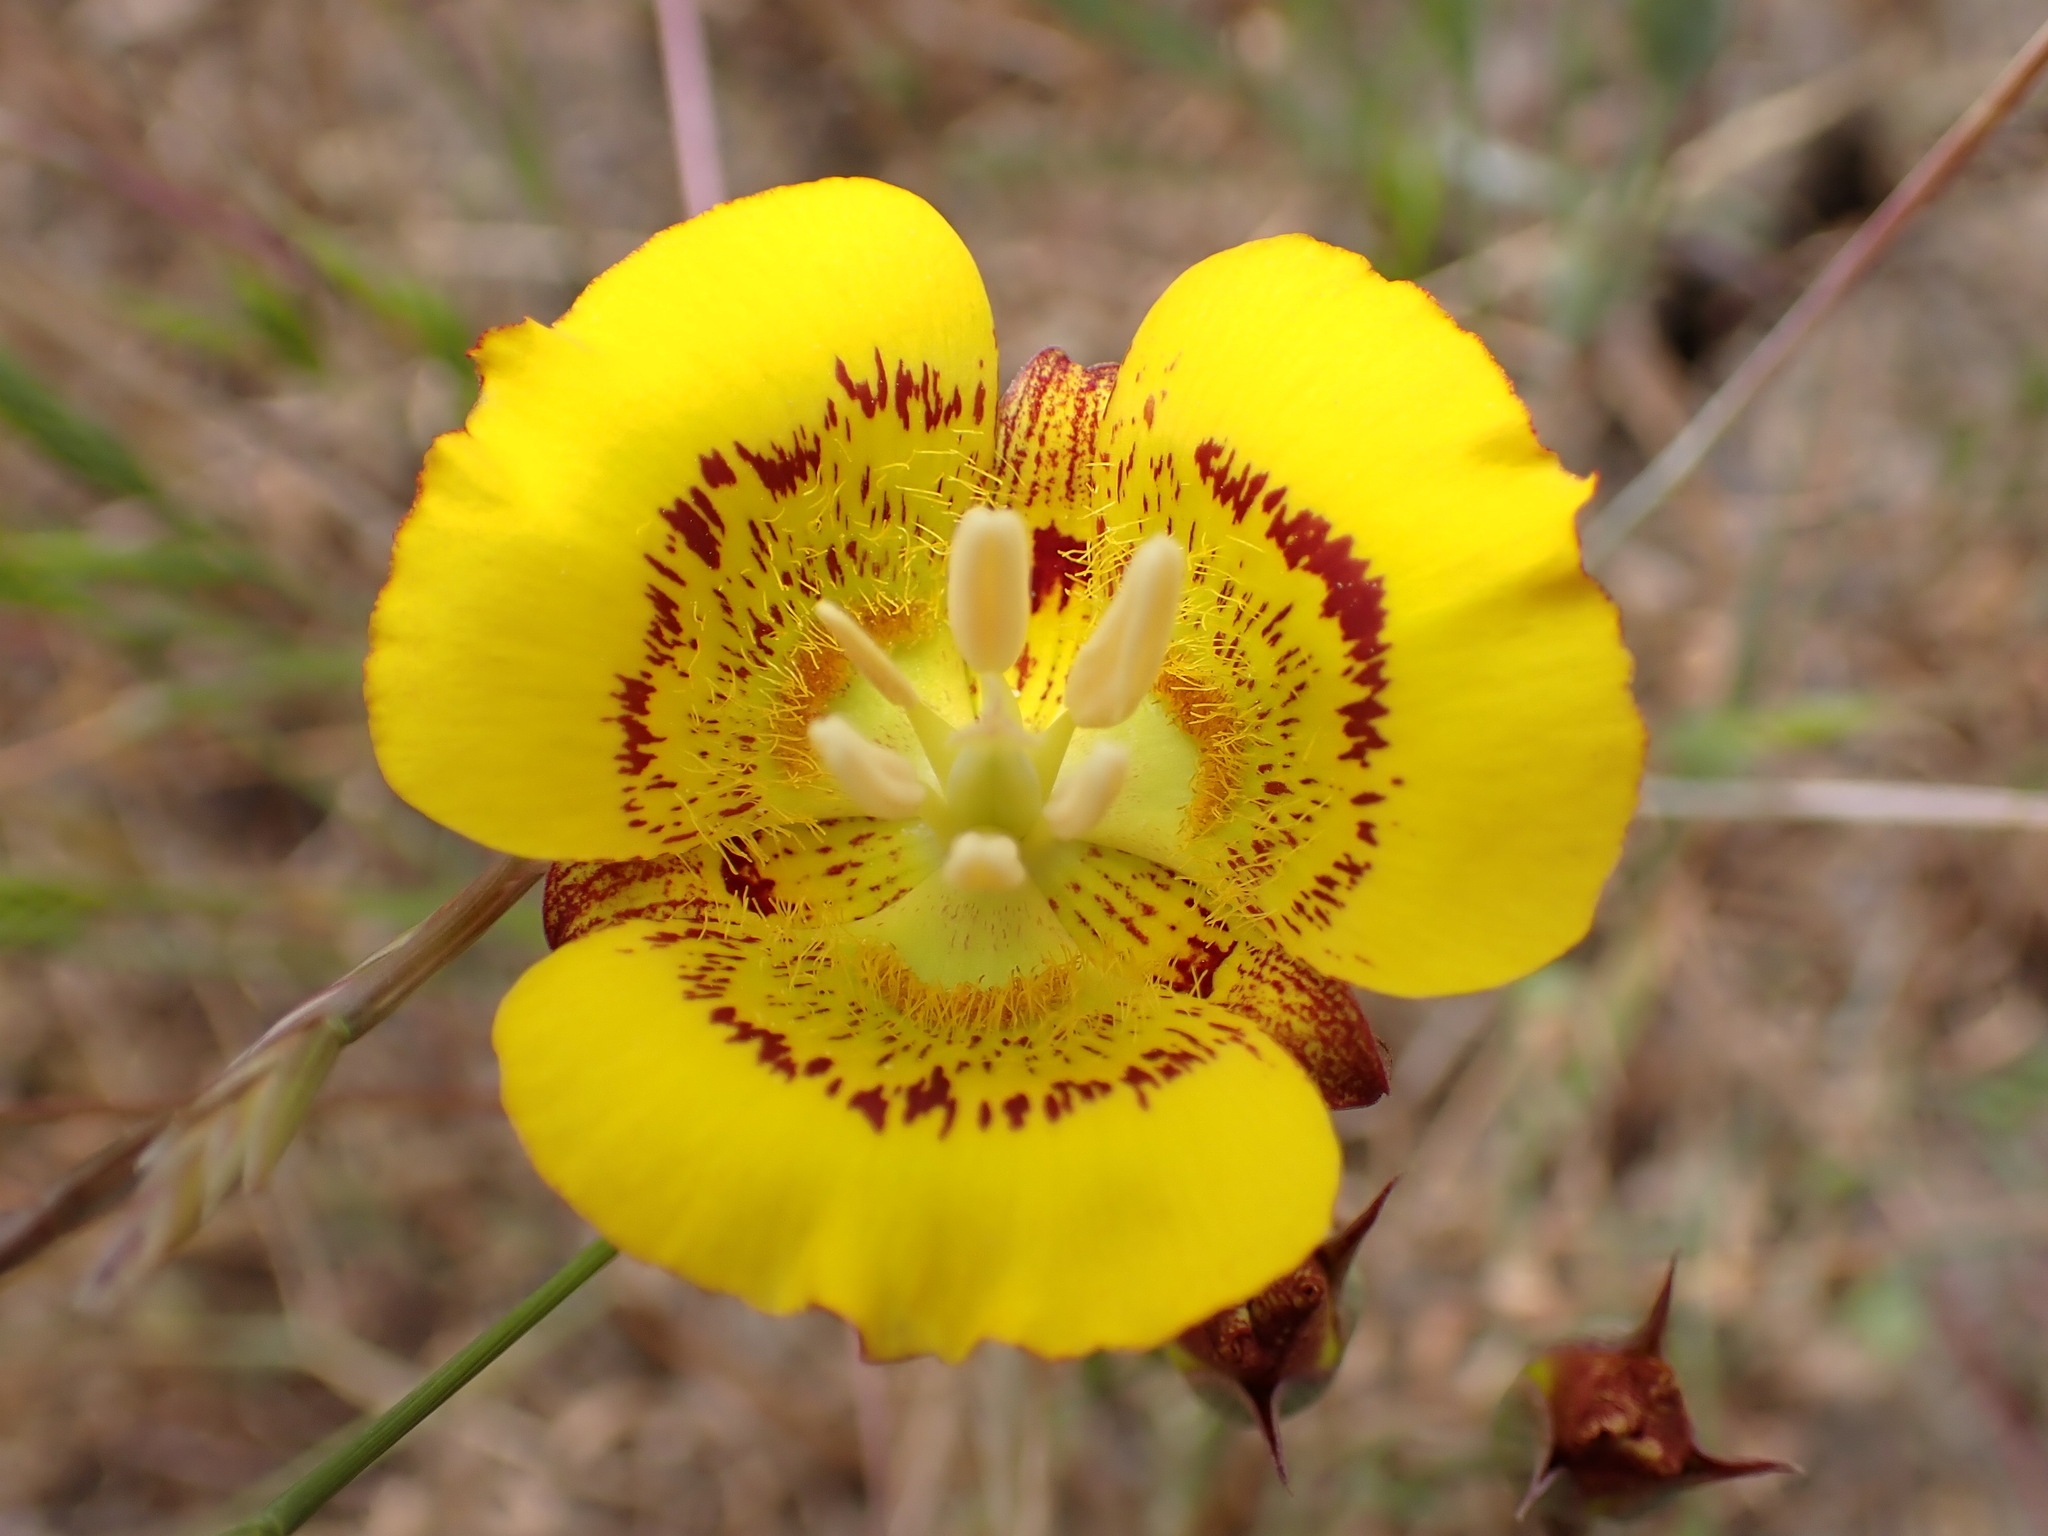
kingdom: Plantae
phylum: Tracheophyta
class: Liliopsida
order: Liliales
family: Liliaceae
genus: Calochortus
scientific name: Calochortus luteus
